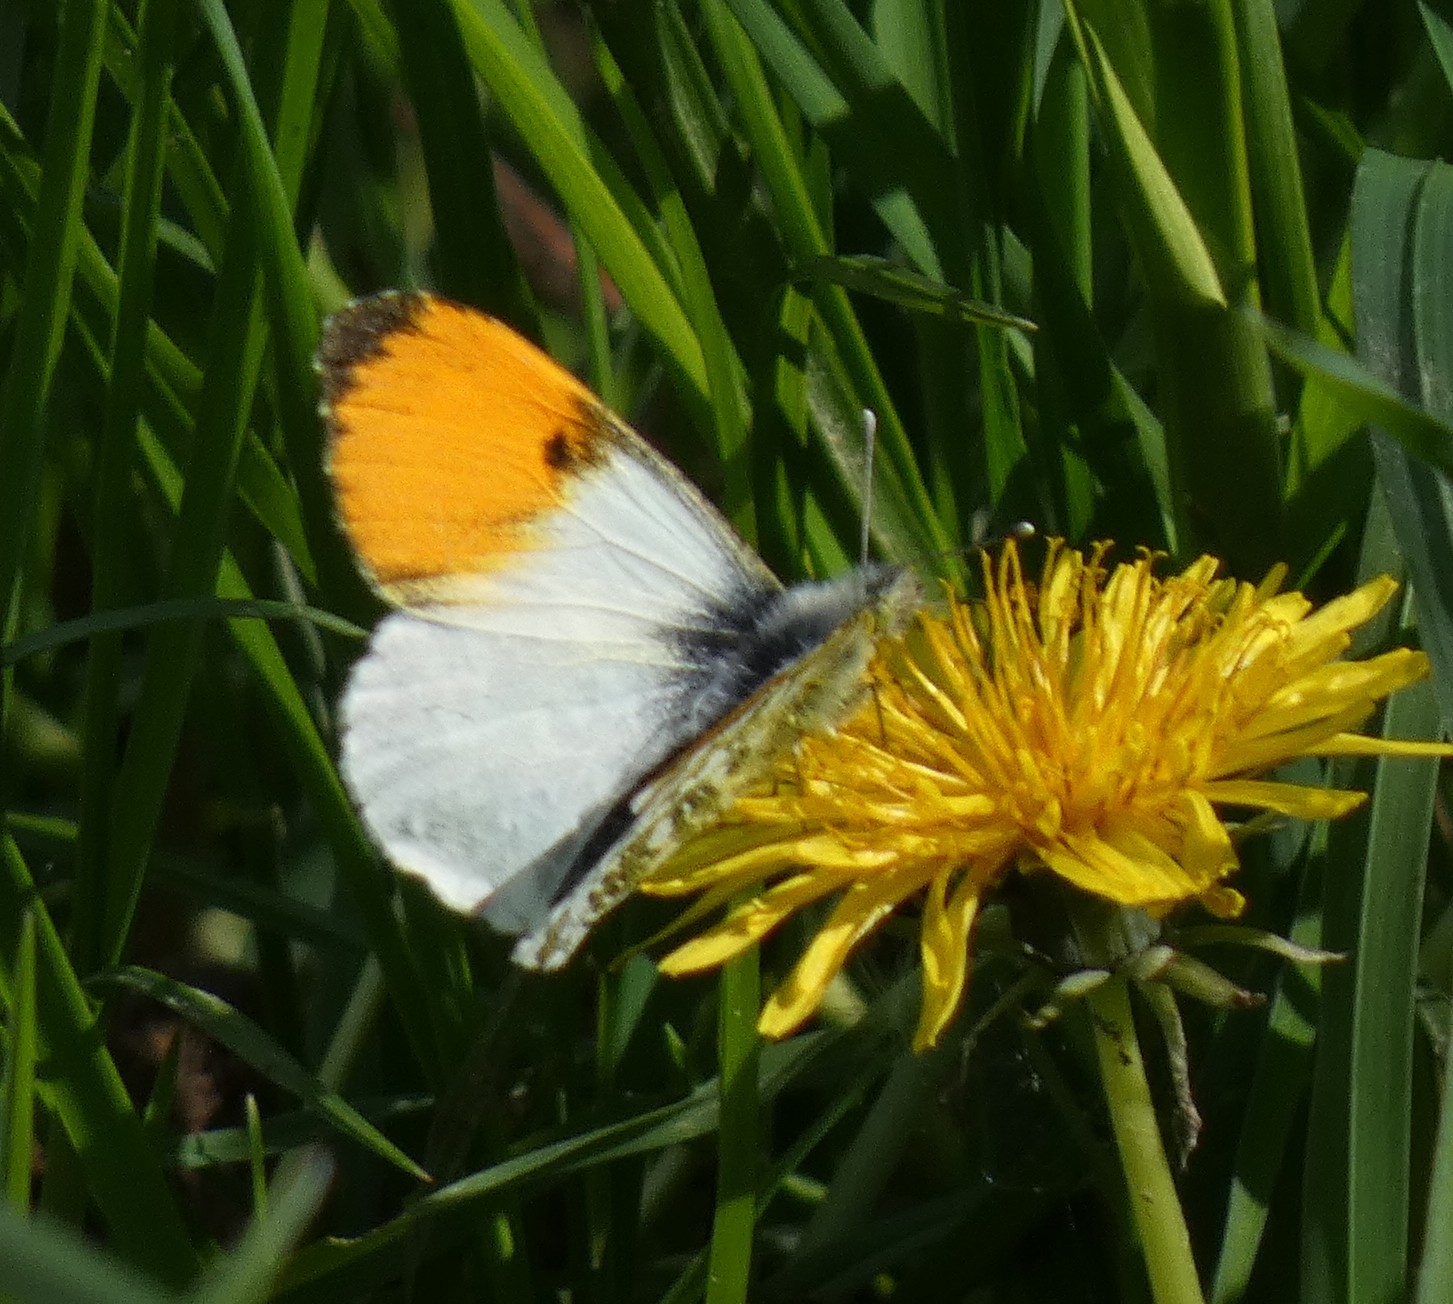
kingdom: Animalia
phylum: Arthropoda
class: Insecta
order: Lepidoptera
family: Pieridae
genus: Anthocharis
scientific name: Anthocharis cardamines
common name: Orange-tip
